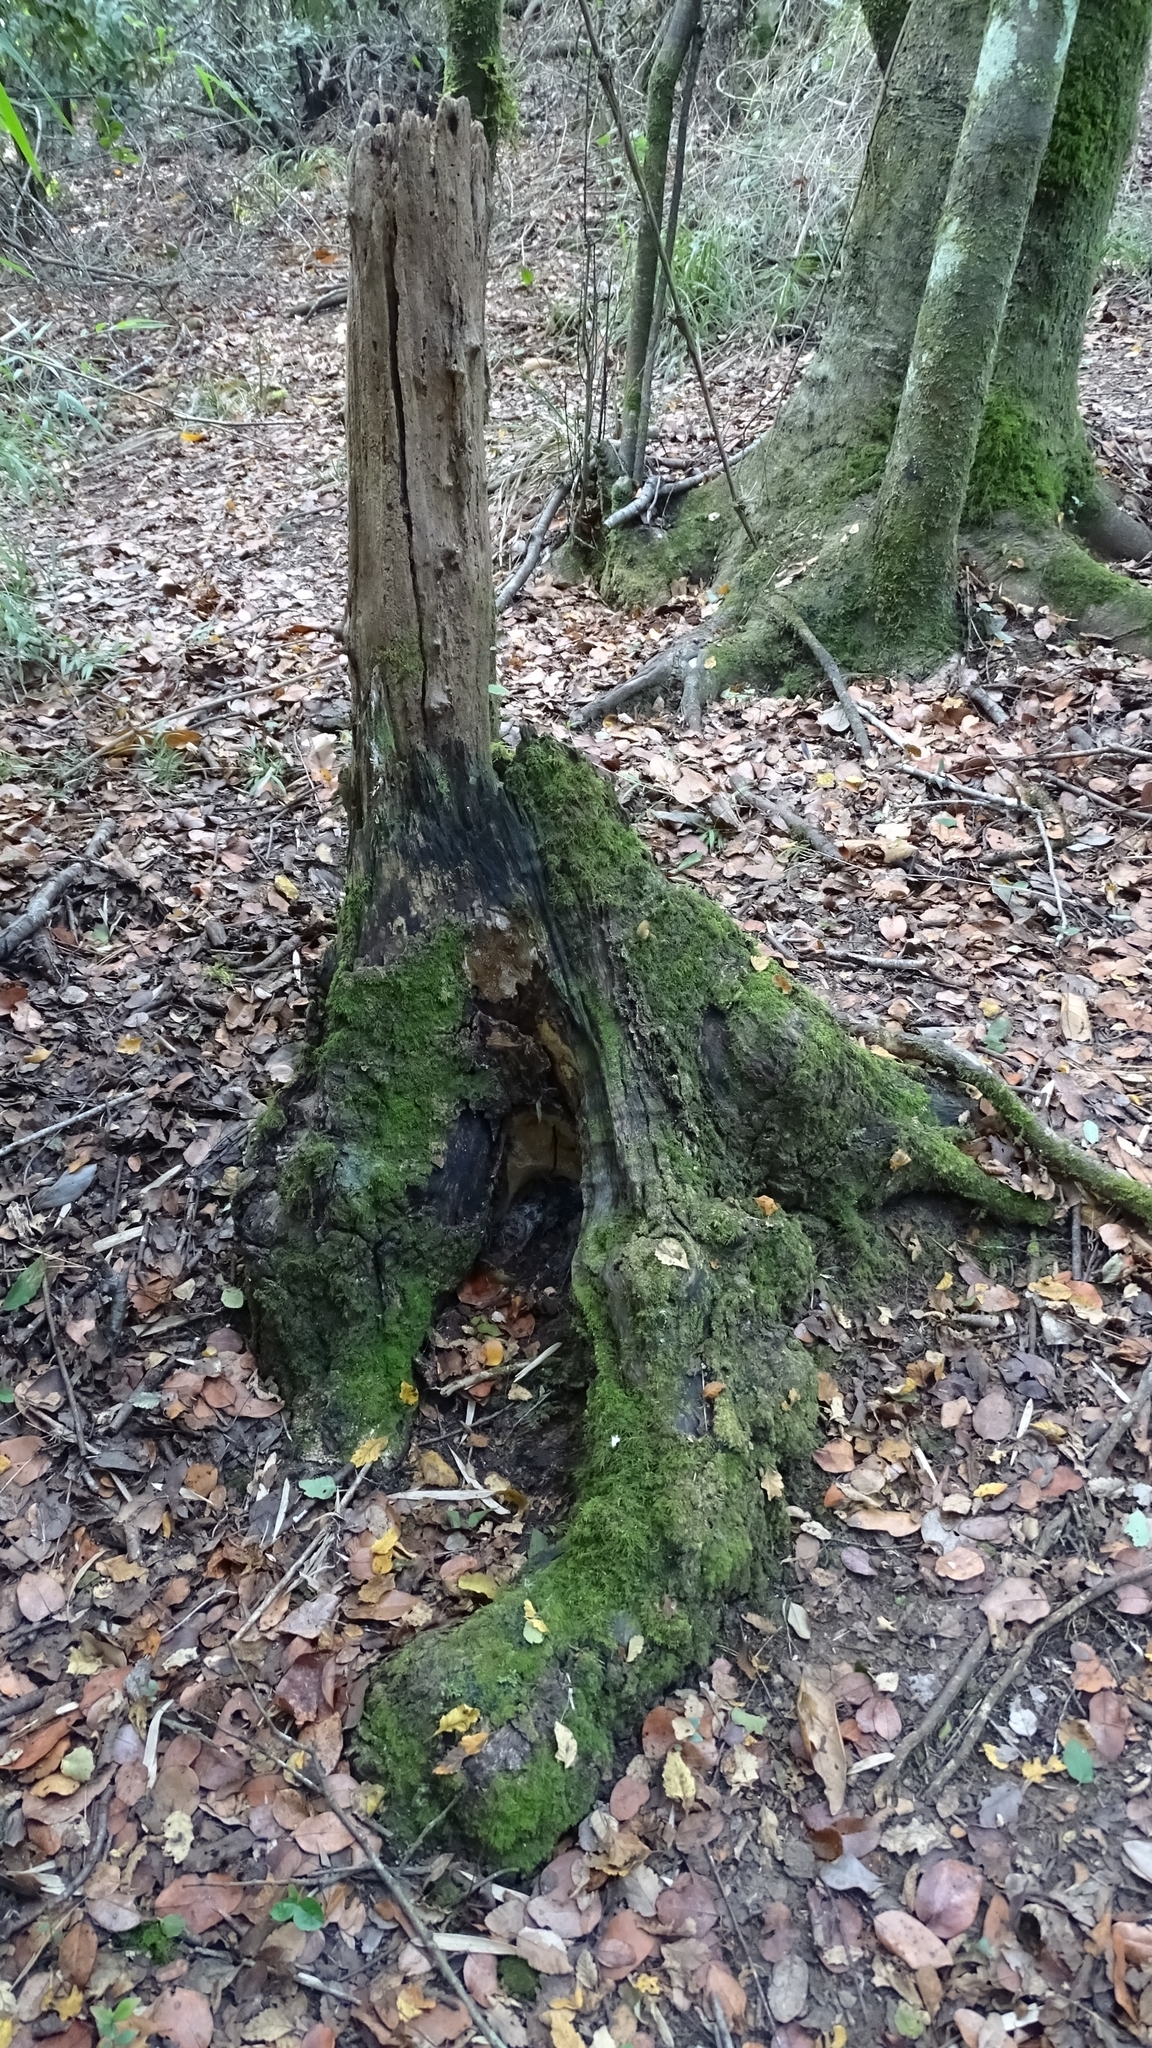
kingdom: Fungi
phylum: Basidiomycota
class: Agaricomycetes
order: Hymenochaetales
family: Hymenochaetaceae
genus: Fomitiporia
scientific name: Fomitiporia chilensis
